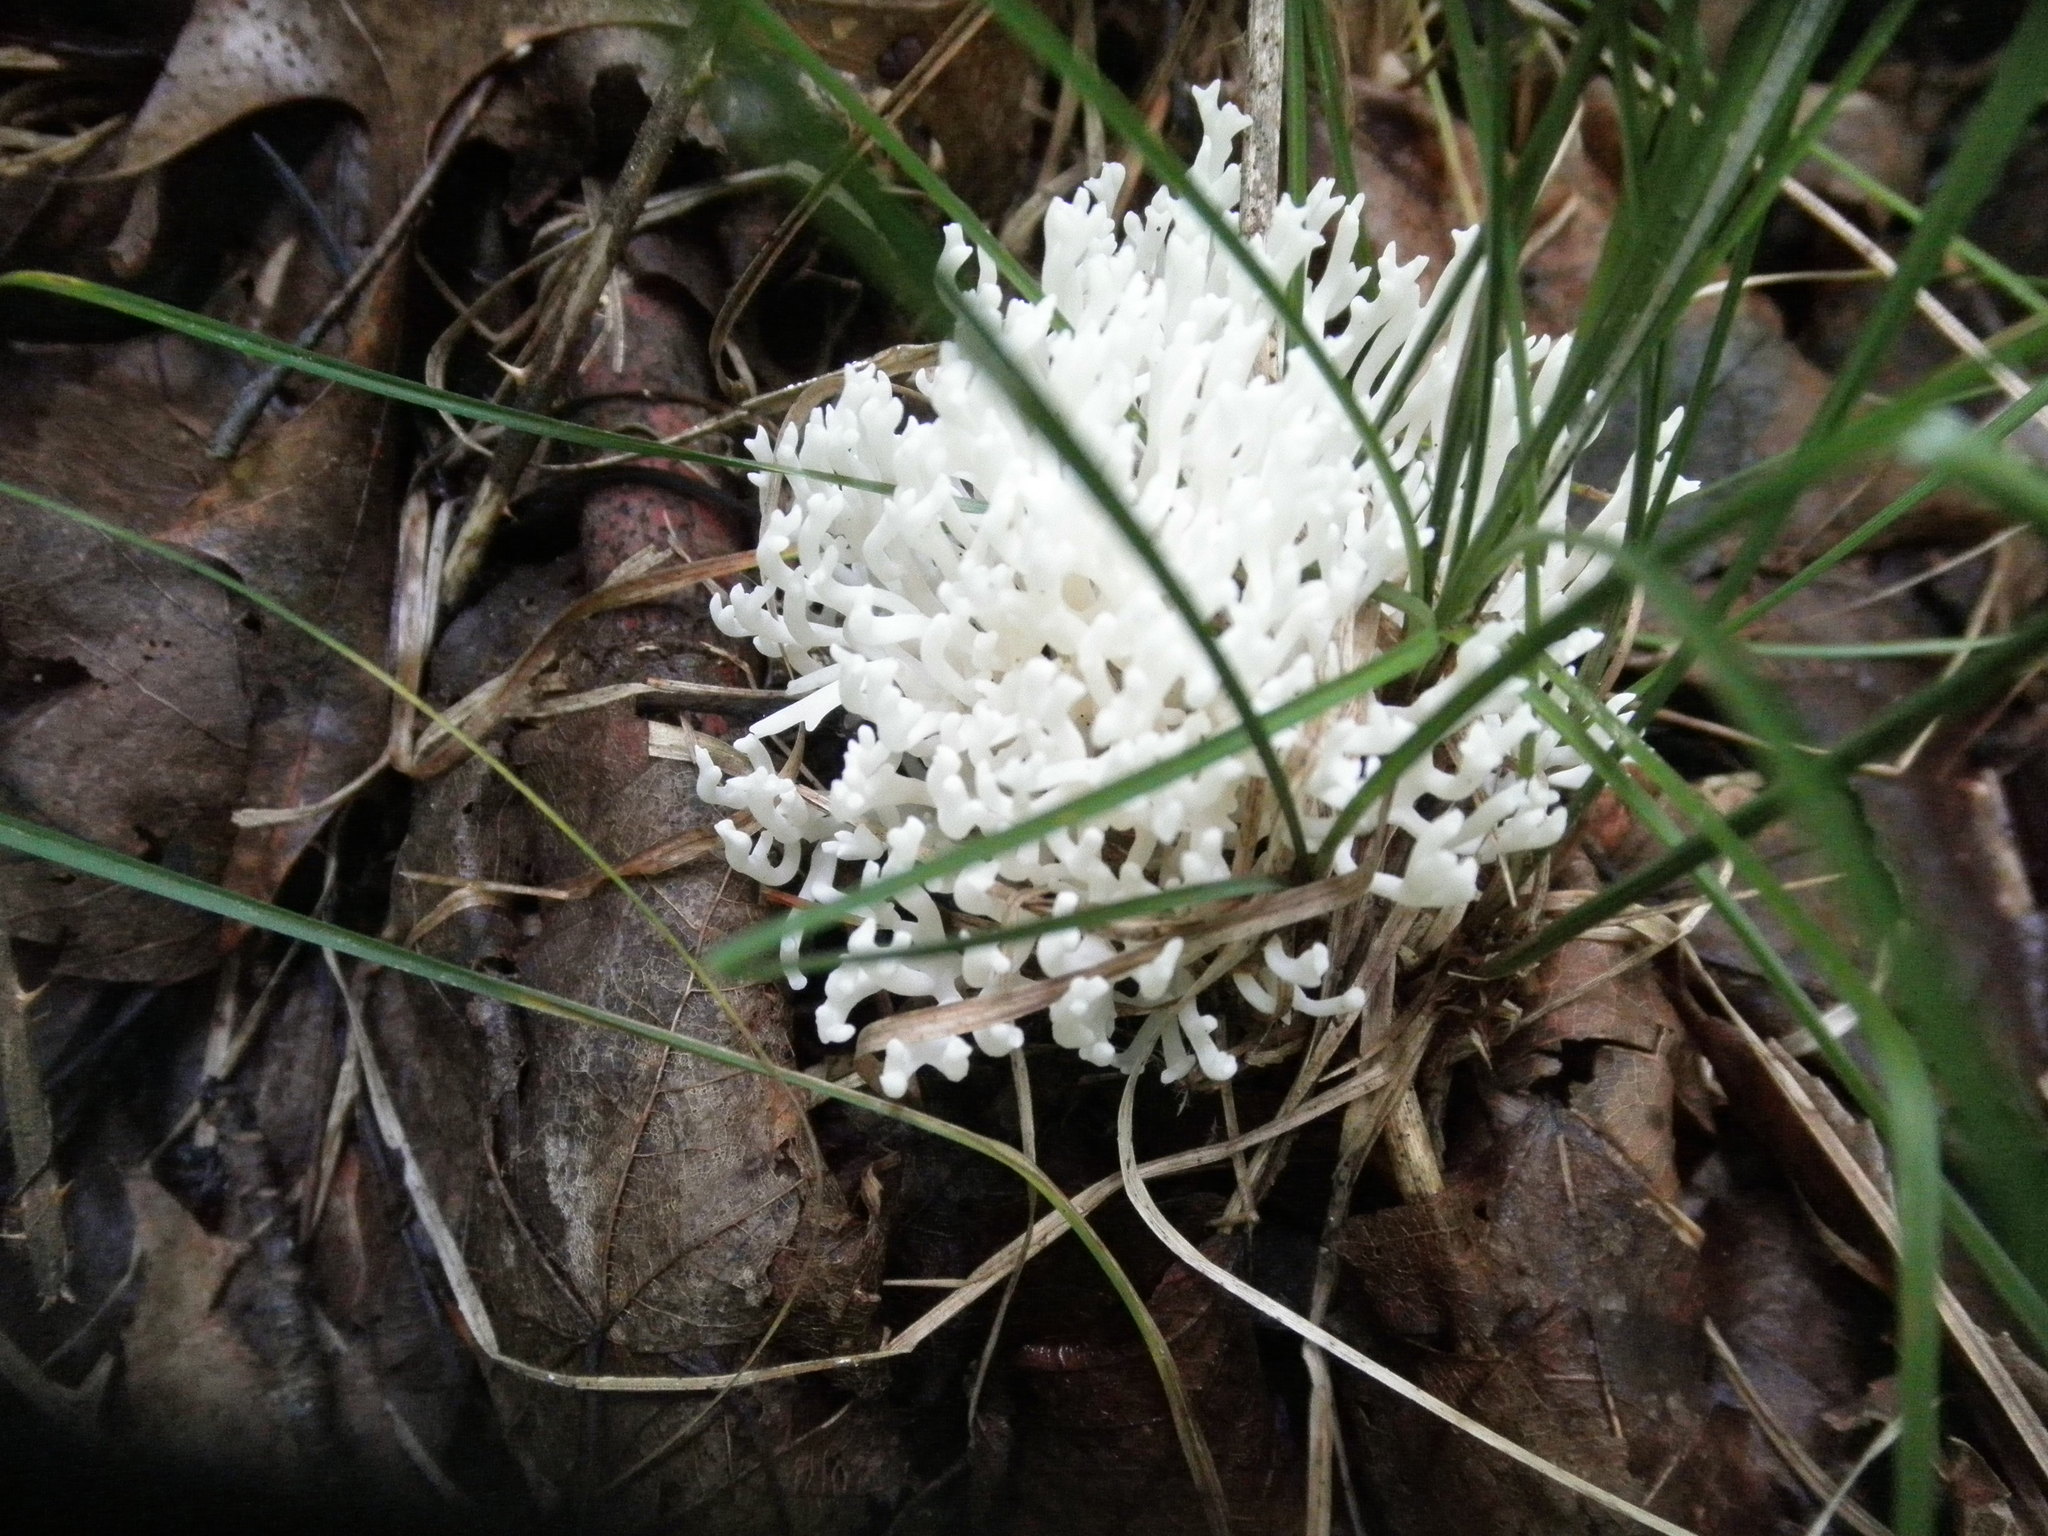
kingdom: Fungi
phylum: Basidiomycota
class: Agaricomycetes
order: Agaricales
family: Clavariaceae
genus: Ramariopsis
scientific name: Ramariopsis kunzei
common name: Ivory coral
